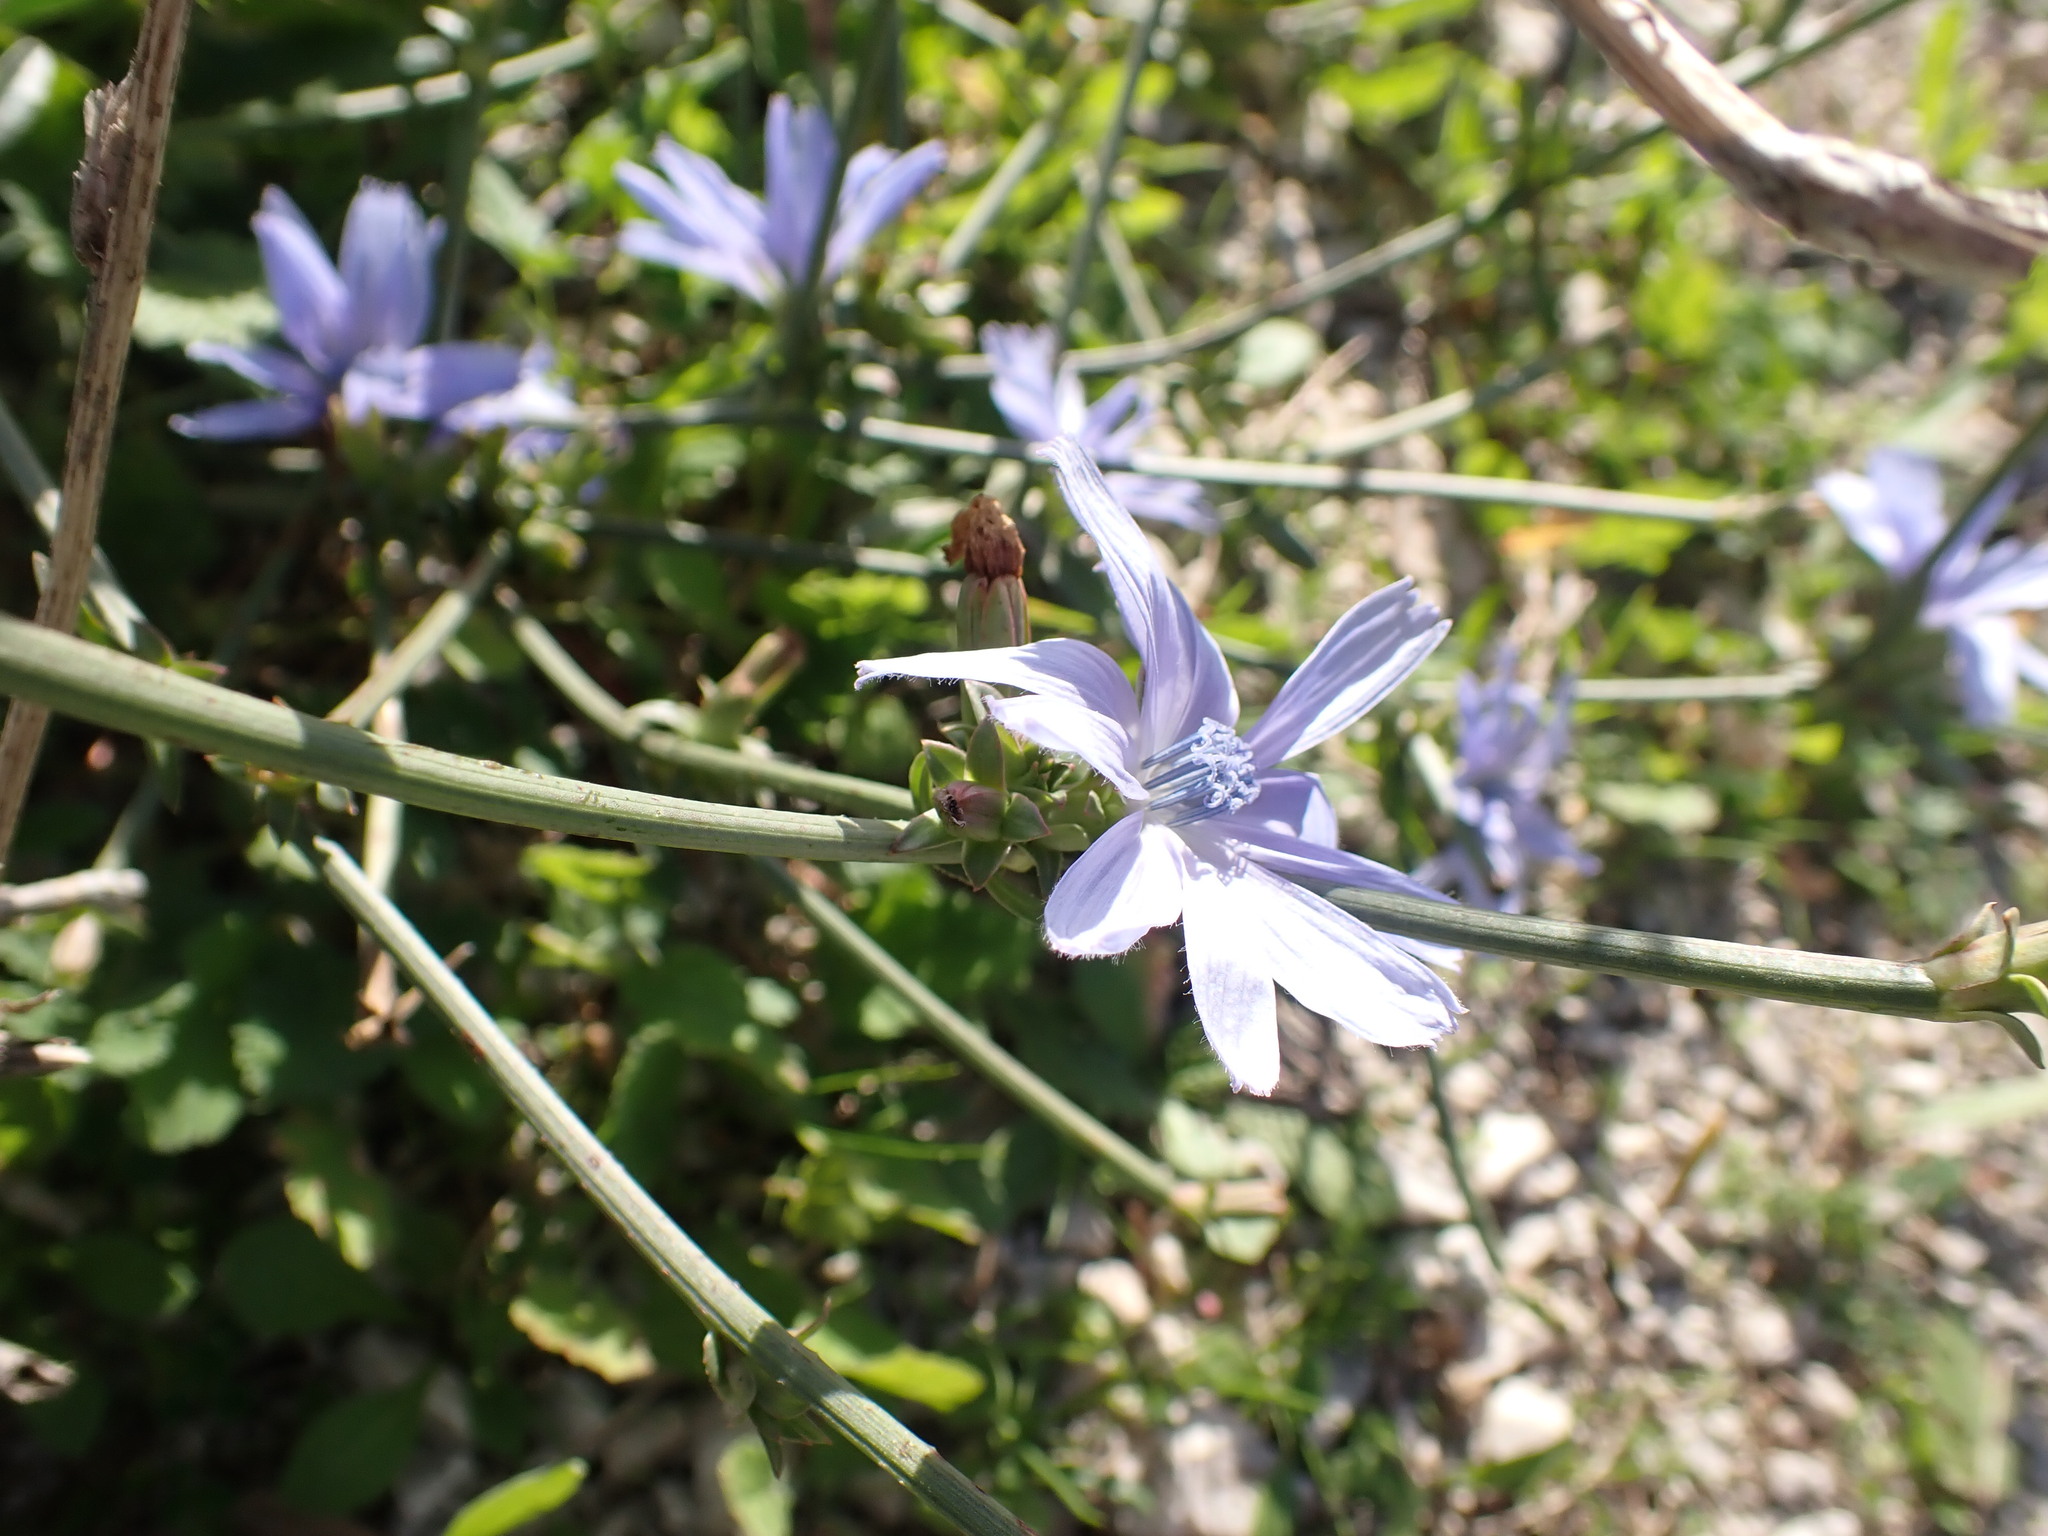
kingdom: Plantae
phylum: Tracheophyta
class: Magnoliopsida
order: Asterales
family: Asteraceae
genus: Cichorium
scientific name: Cichorium intybus
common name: Chicory
